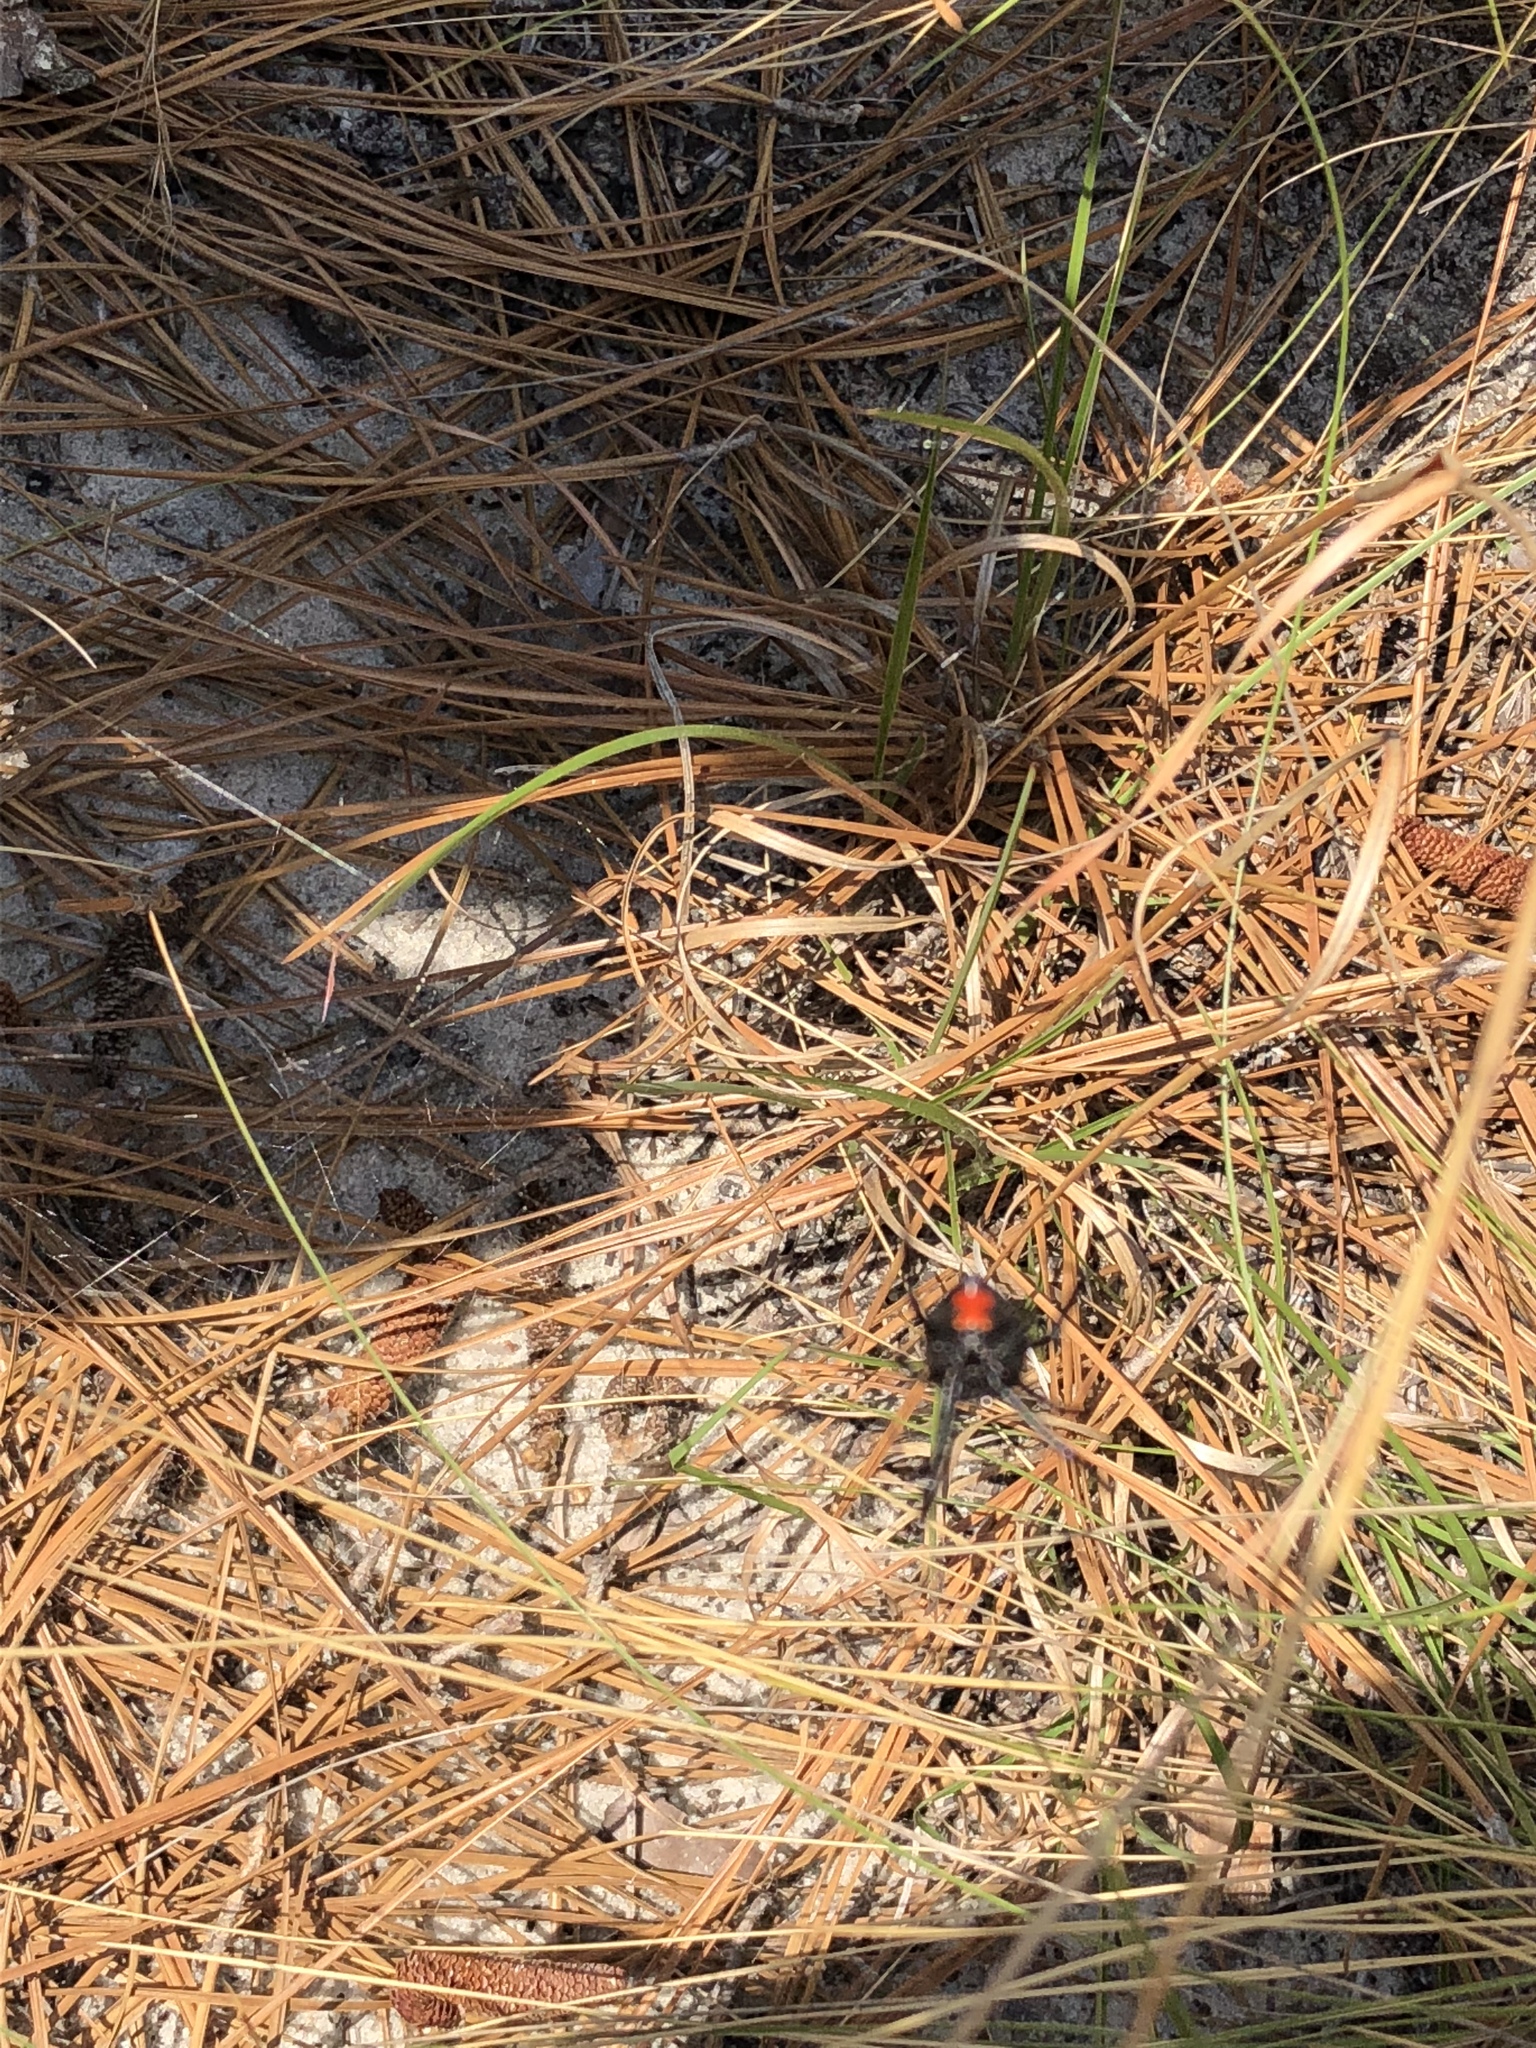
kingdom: Animalia
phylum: Arthropoda
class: Arachnida
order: Araneae
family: Theridiidae
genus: Latrodectus
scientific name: Latrodectus mactans
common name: Cobweb spiders
